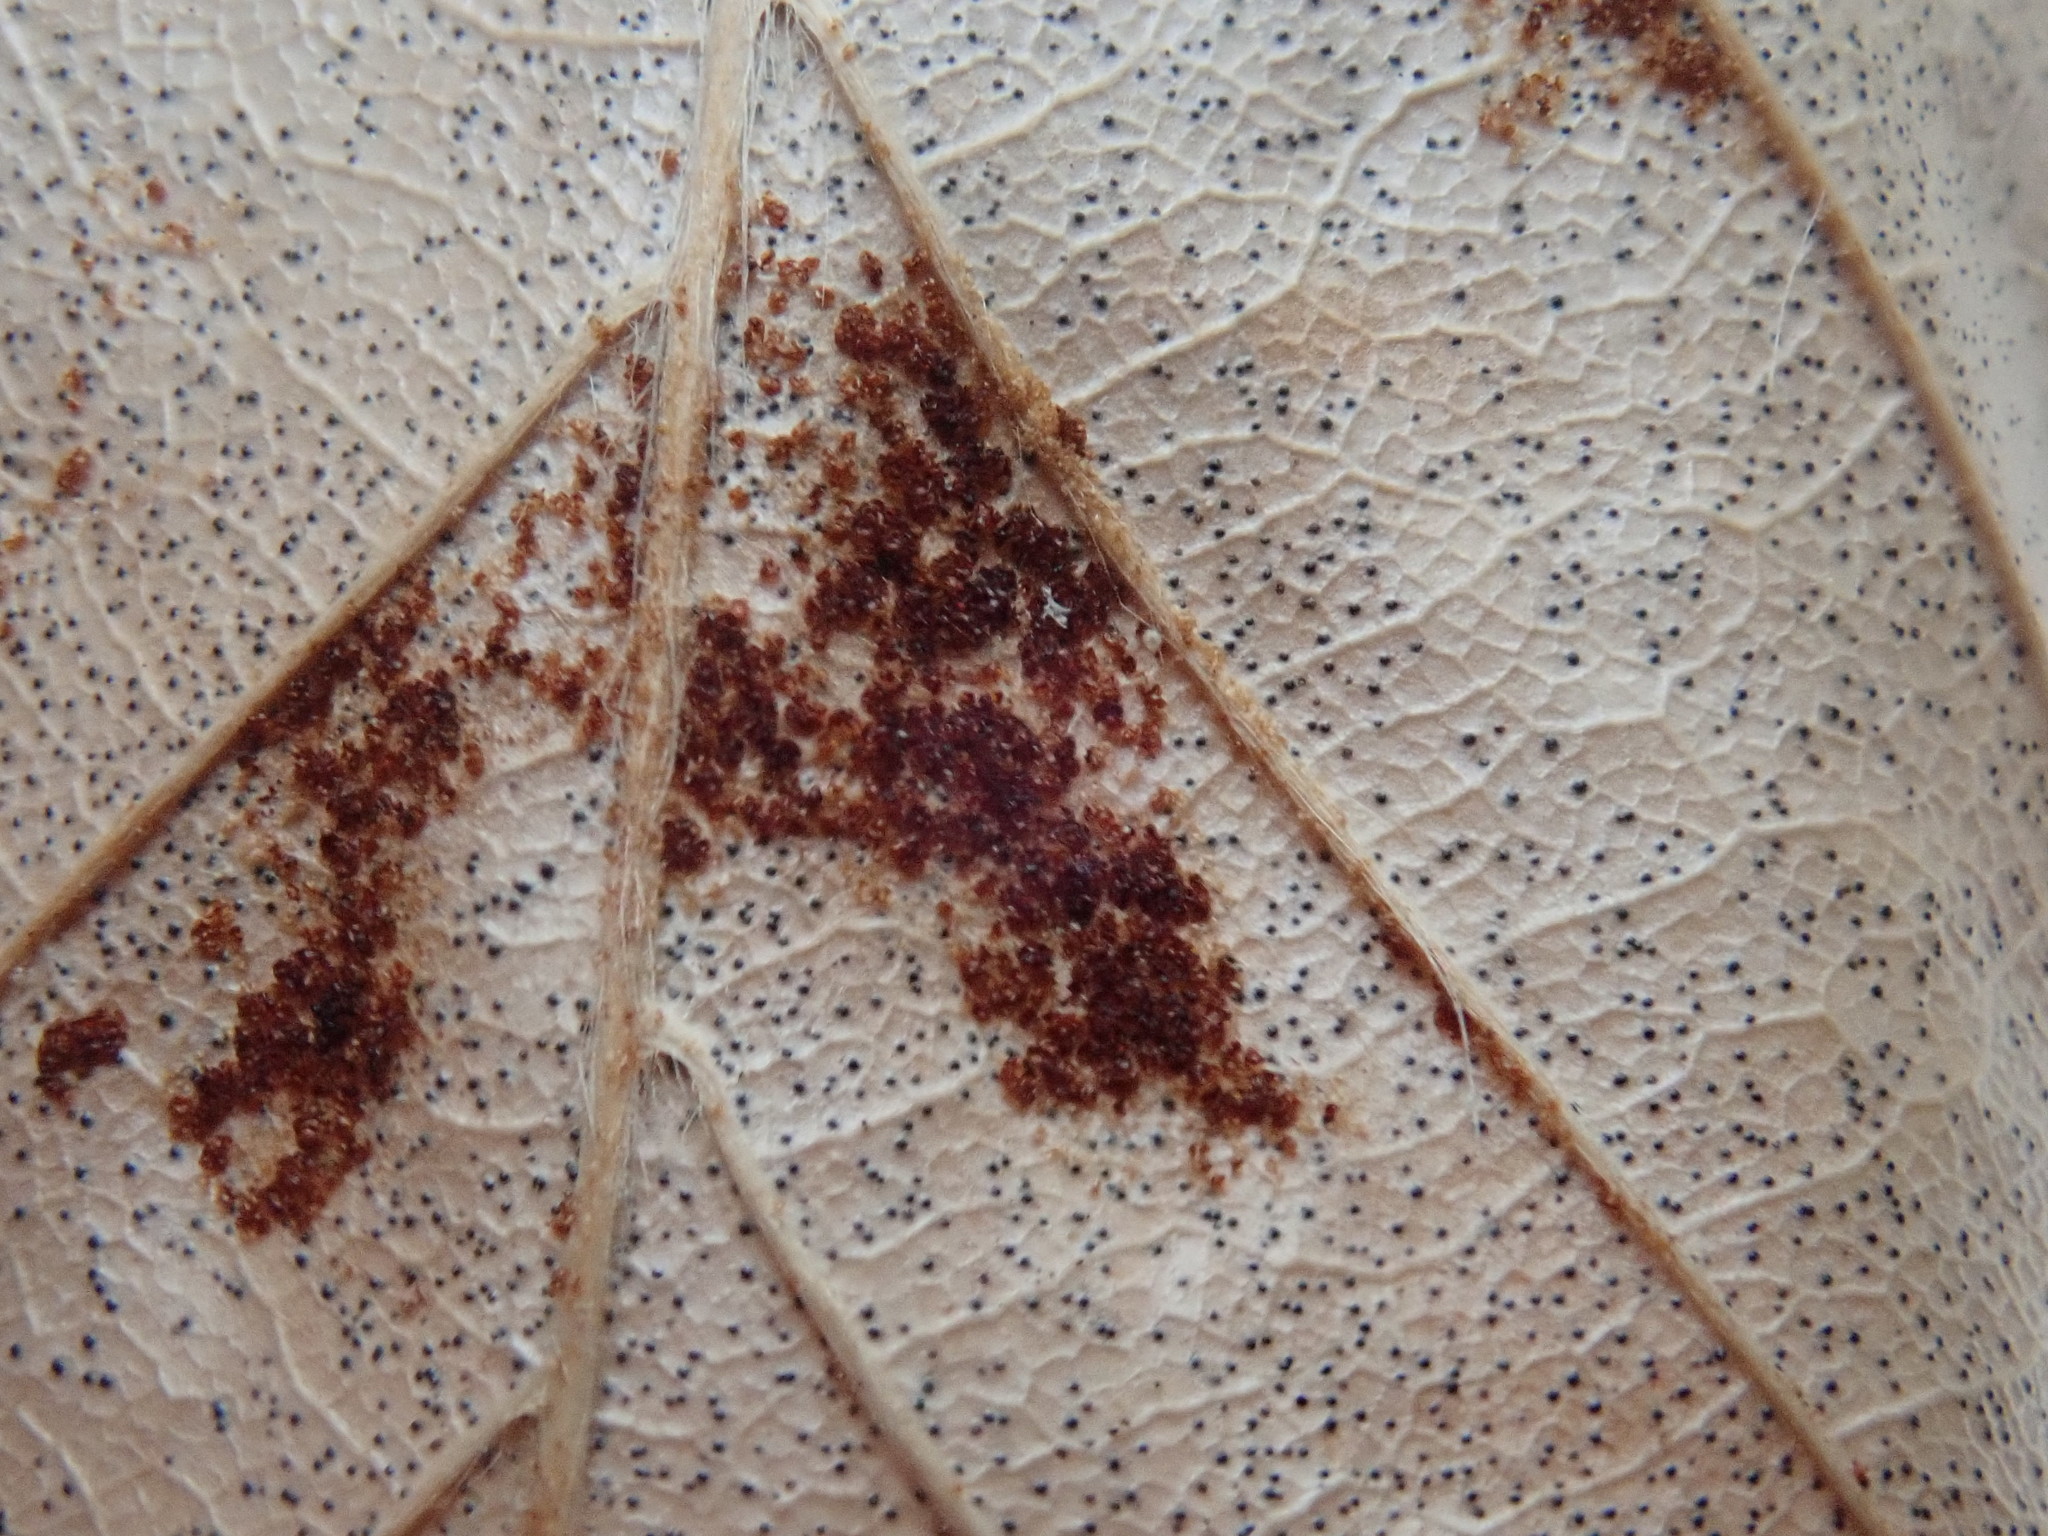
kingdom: Animalia
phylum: Arthropoda
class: Arachnida
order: Trombidiformes
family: Eriophyidae
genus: Acalitus
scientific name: Acalitus
